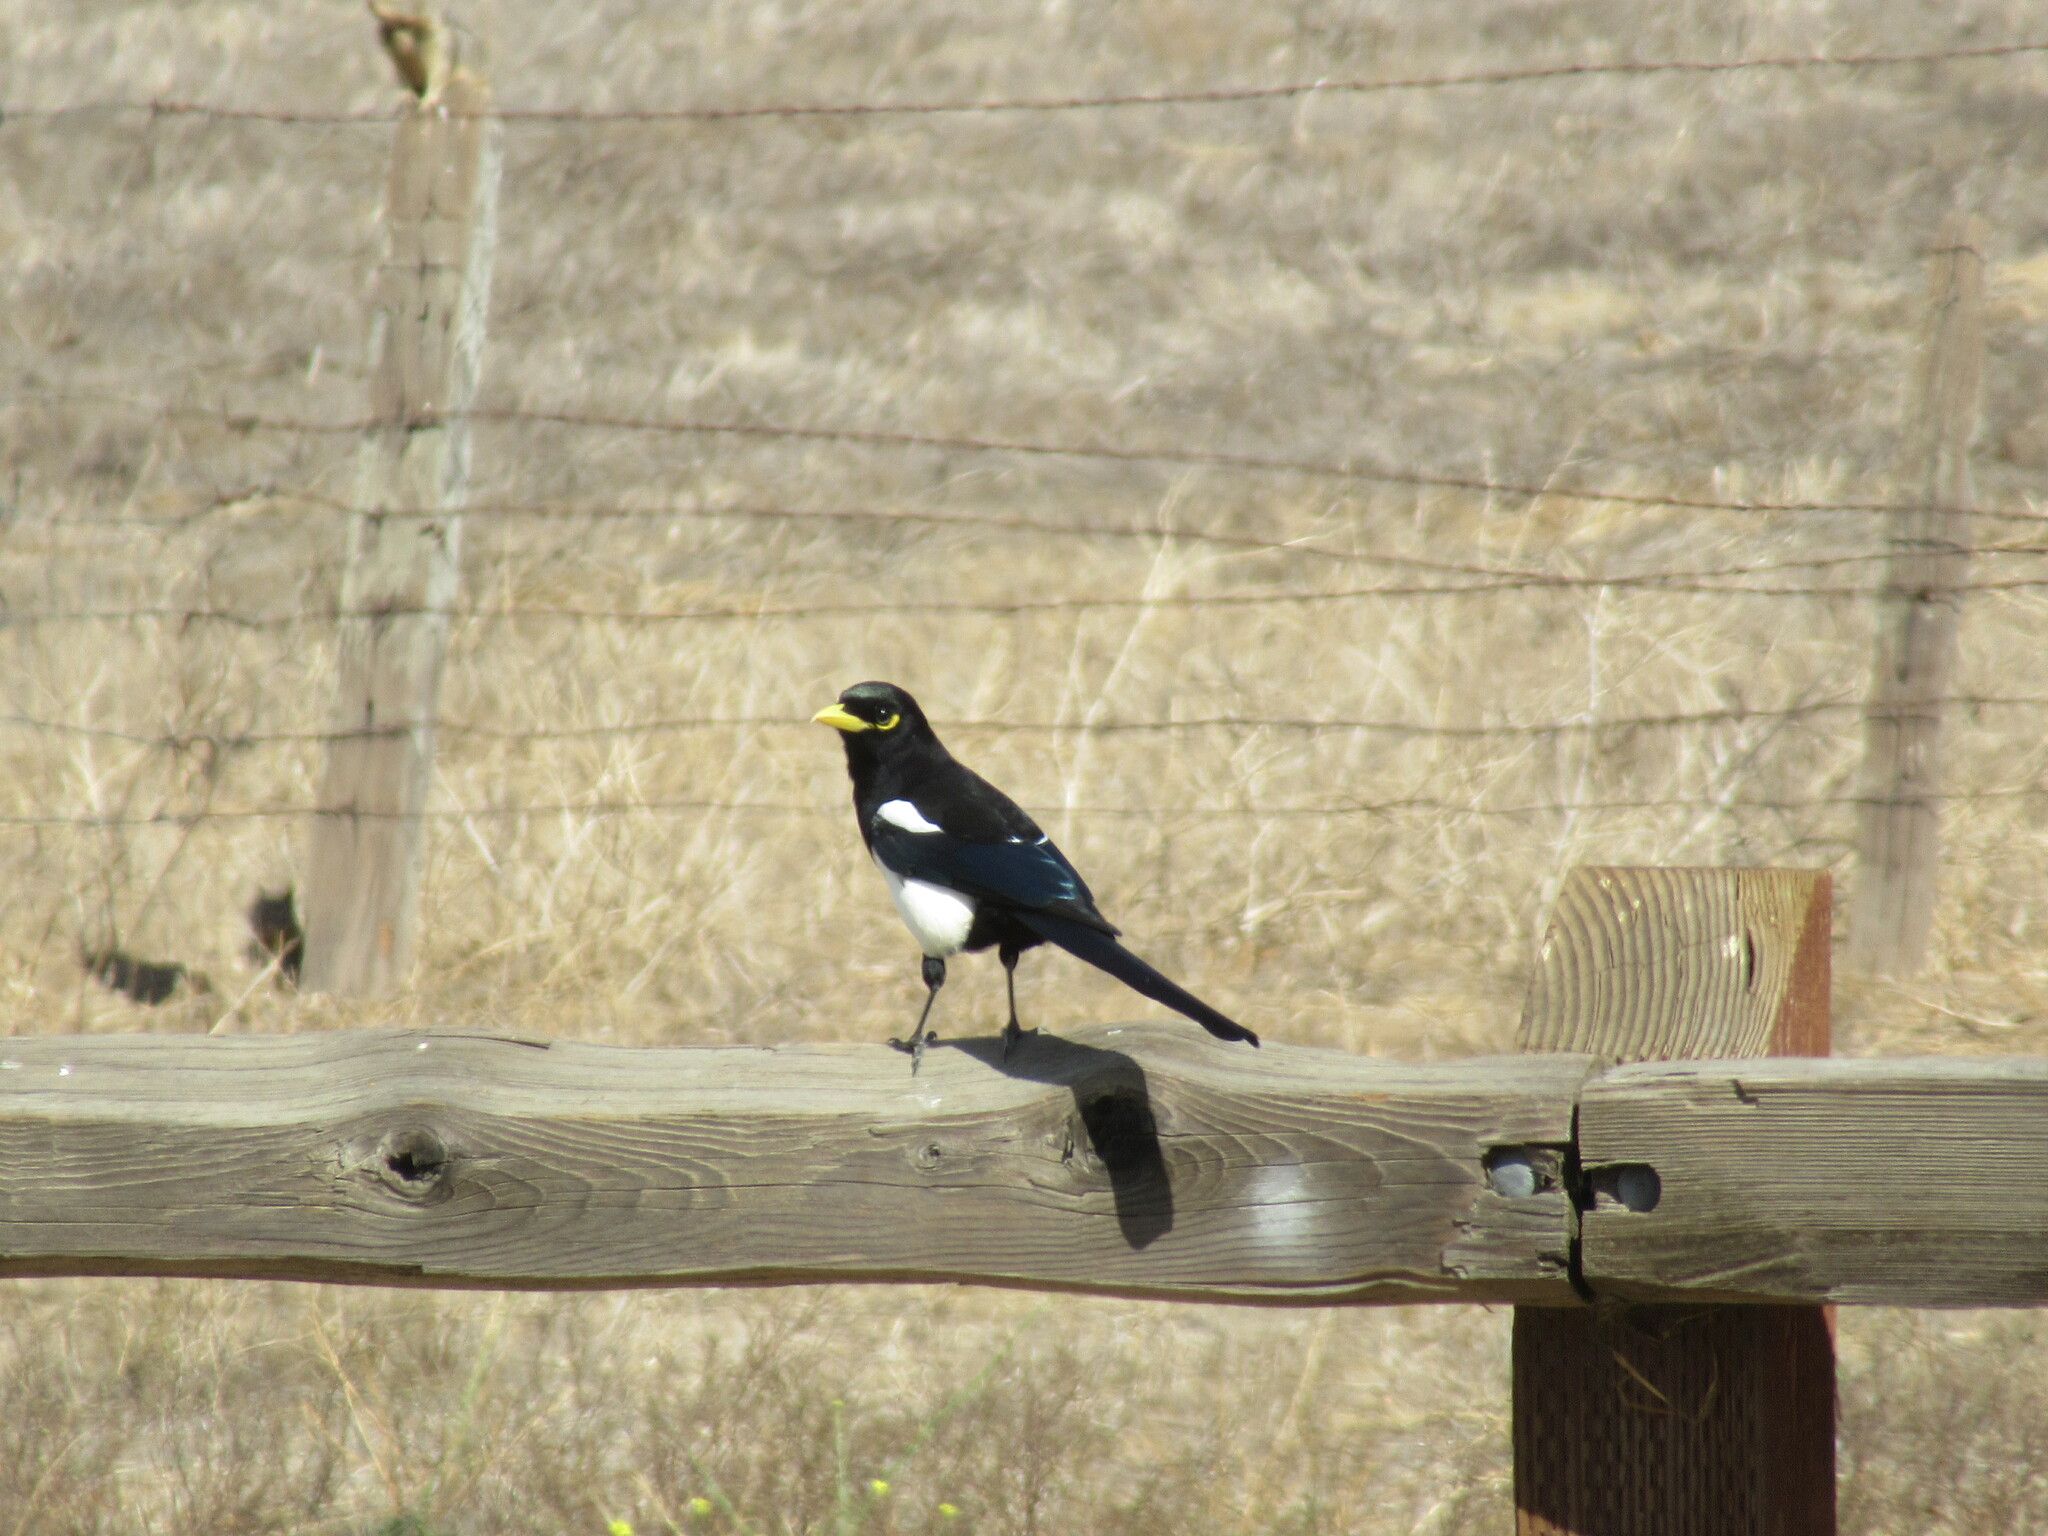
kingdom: Animalia
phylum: Chordata
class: Aves
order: Passeriformes
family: Corvidae
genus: Pica
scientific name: Pica nuttalli
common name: Yellow-billed magpie
